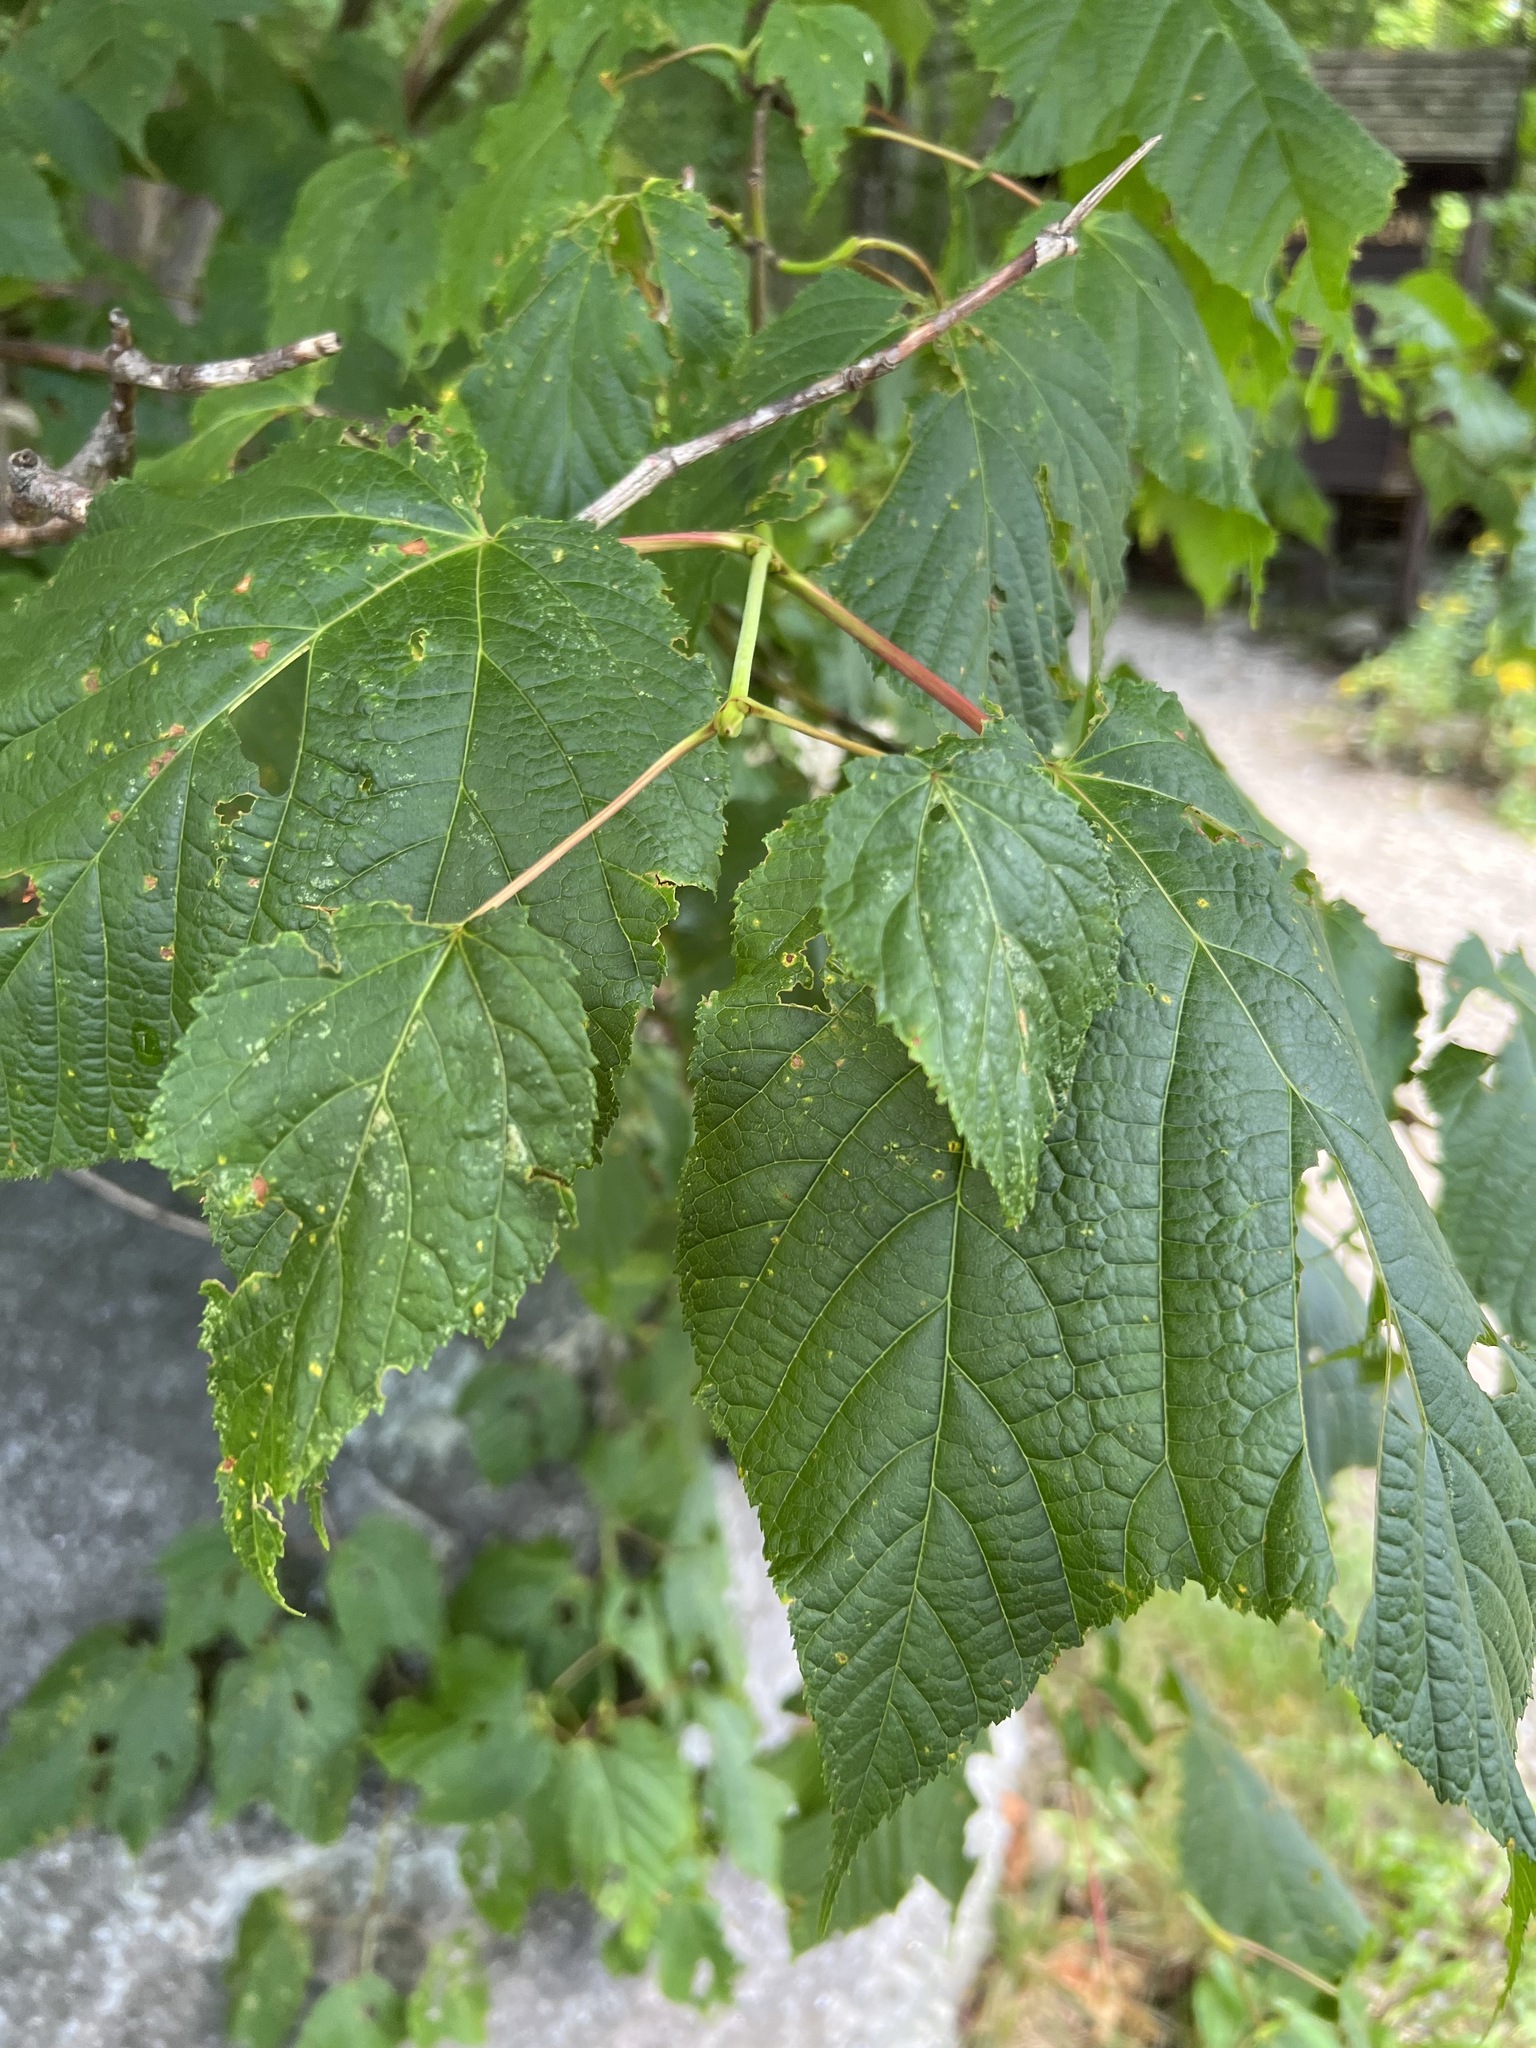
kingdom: Plantae
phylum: Tracheophyta
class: Magnoliopsida
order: Sapindales
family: Sapindaceae
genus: Acer
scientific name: Acer pensylvanicum
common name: Moosewood
